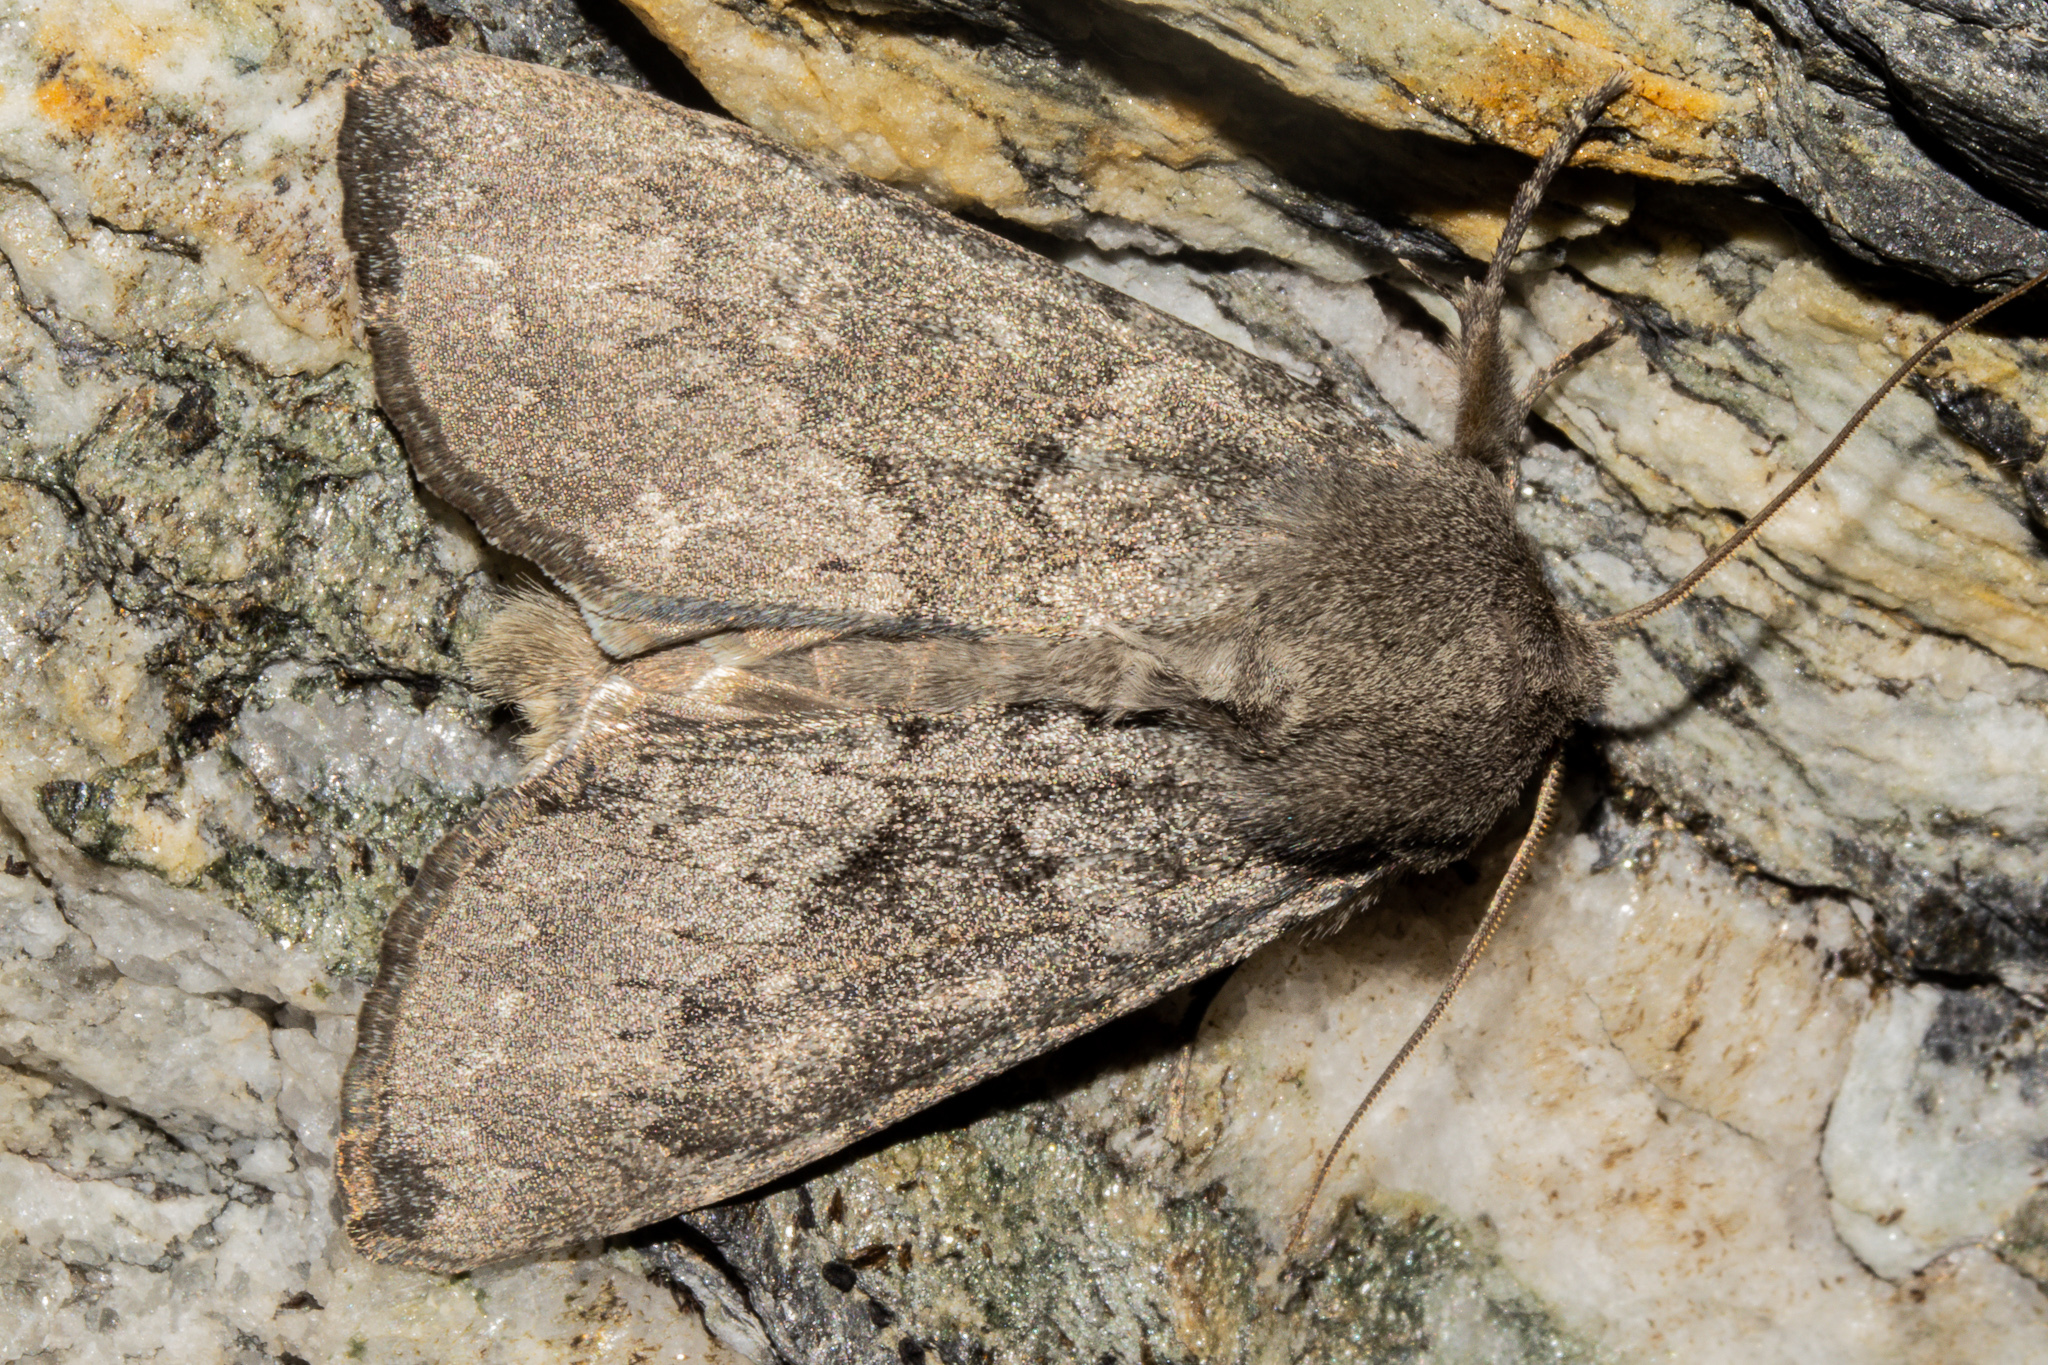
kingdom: Animalia
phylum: Arthropoda
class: Insecta
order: Lepidoptera
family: Noctuidae
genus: Ichneutica
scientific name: Ichneutica nullifera
